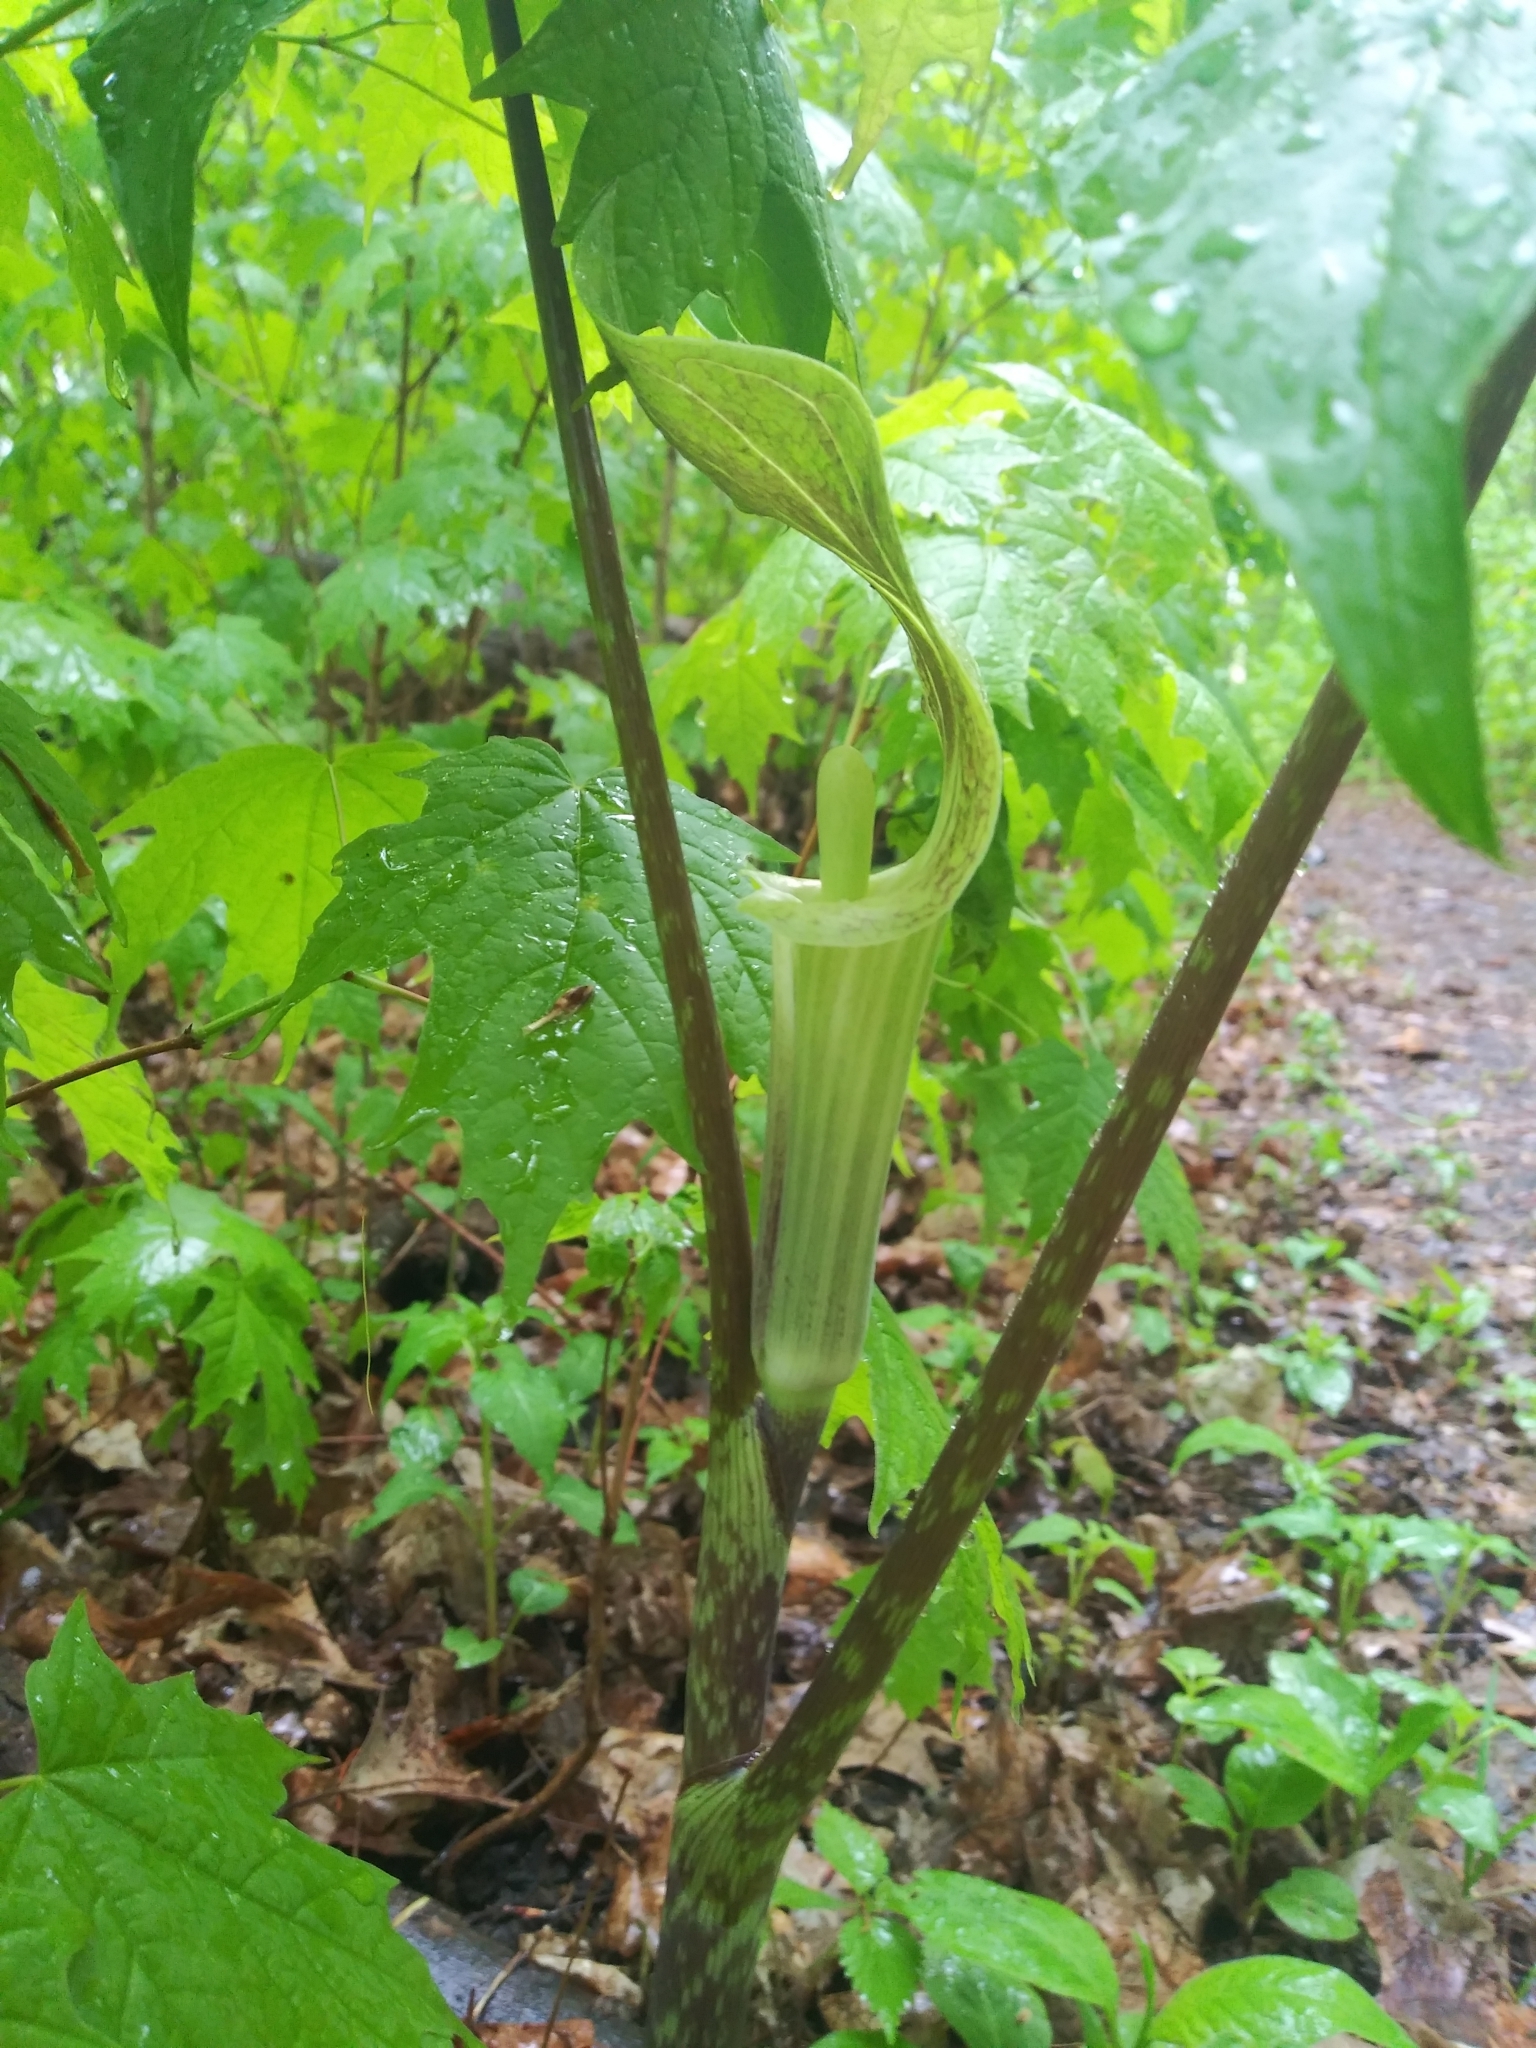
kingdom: Plantae
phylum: Tracheophyta
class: Liliopsida
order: Alismatales
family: Araceae
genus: Arisaema
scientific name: Arisaema triphyllum
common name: Jack-in-the-pulpit
